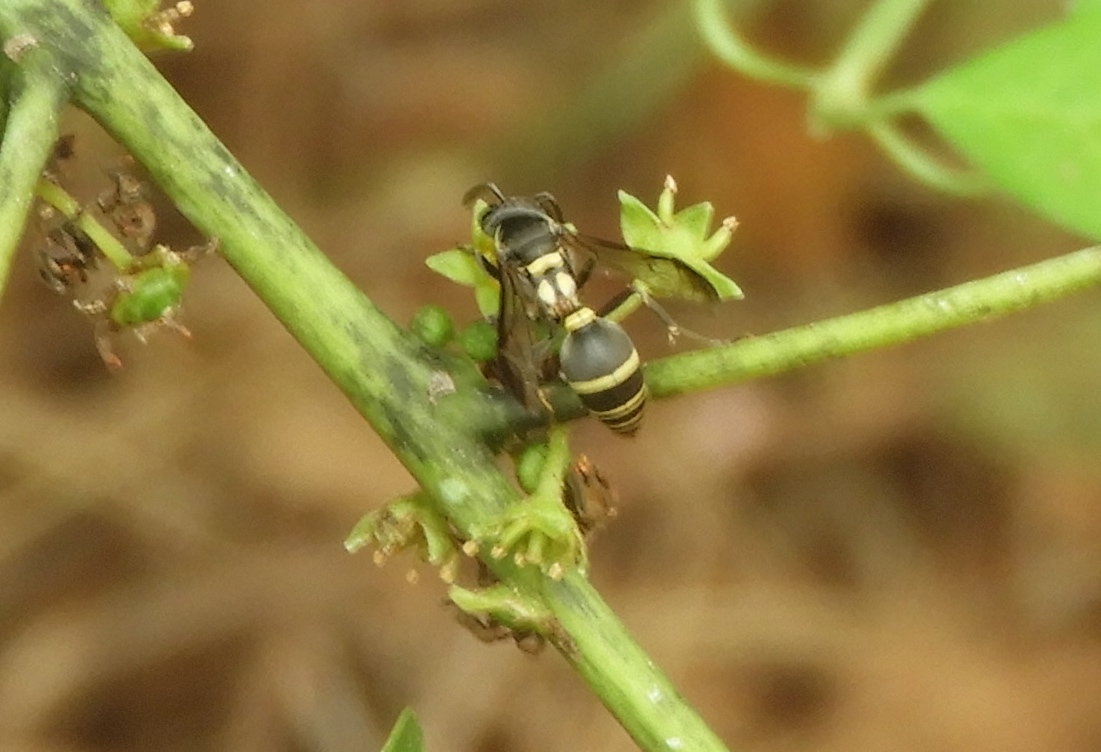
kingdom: Animalia
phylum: Arthropoda
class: Insecta
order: Hymenoptera
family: Vespidae
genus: Myrapetra
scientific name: Myrapetra
